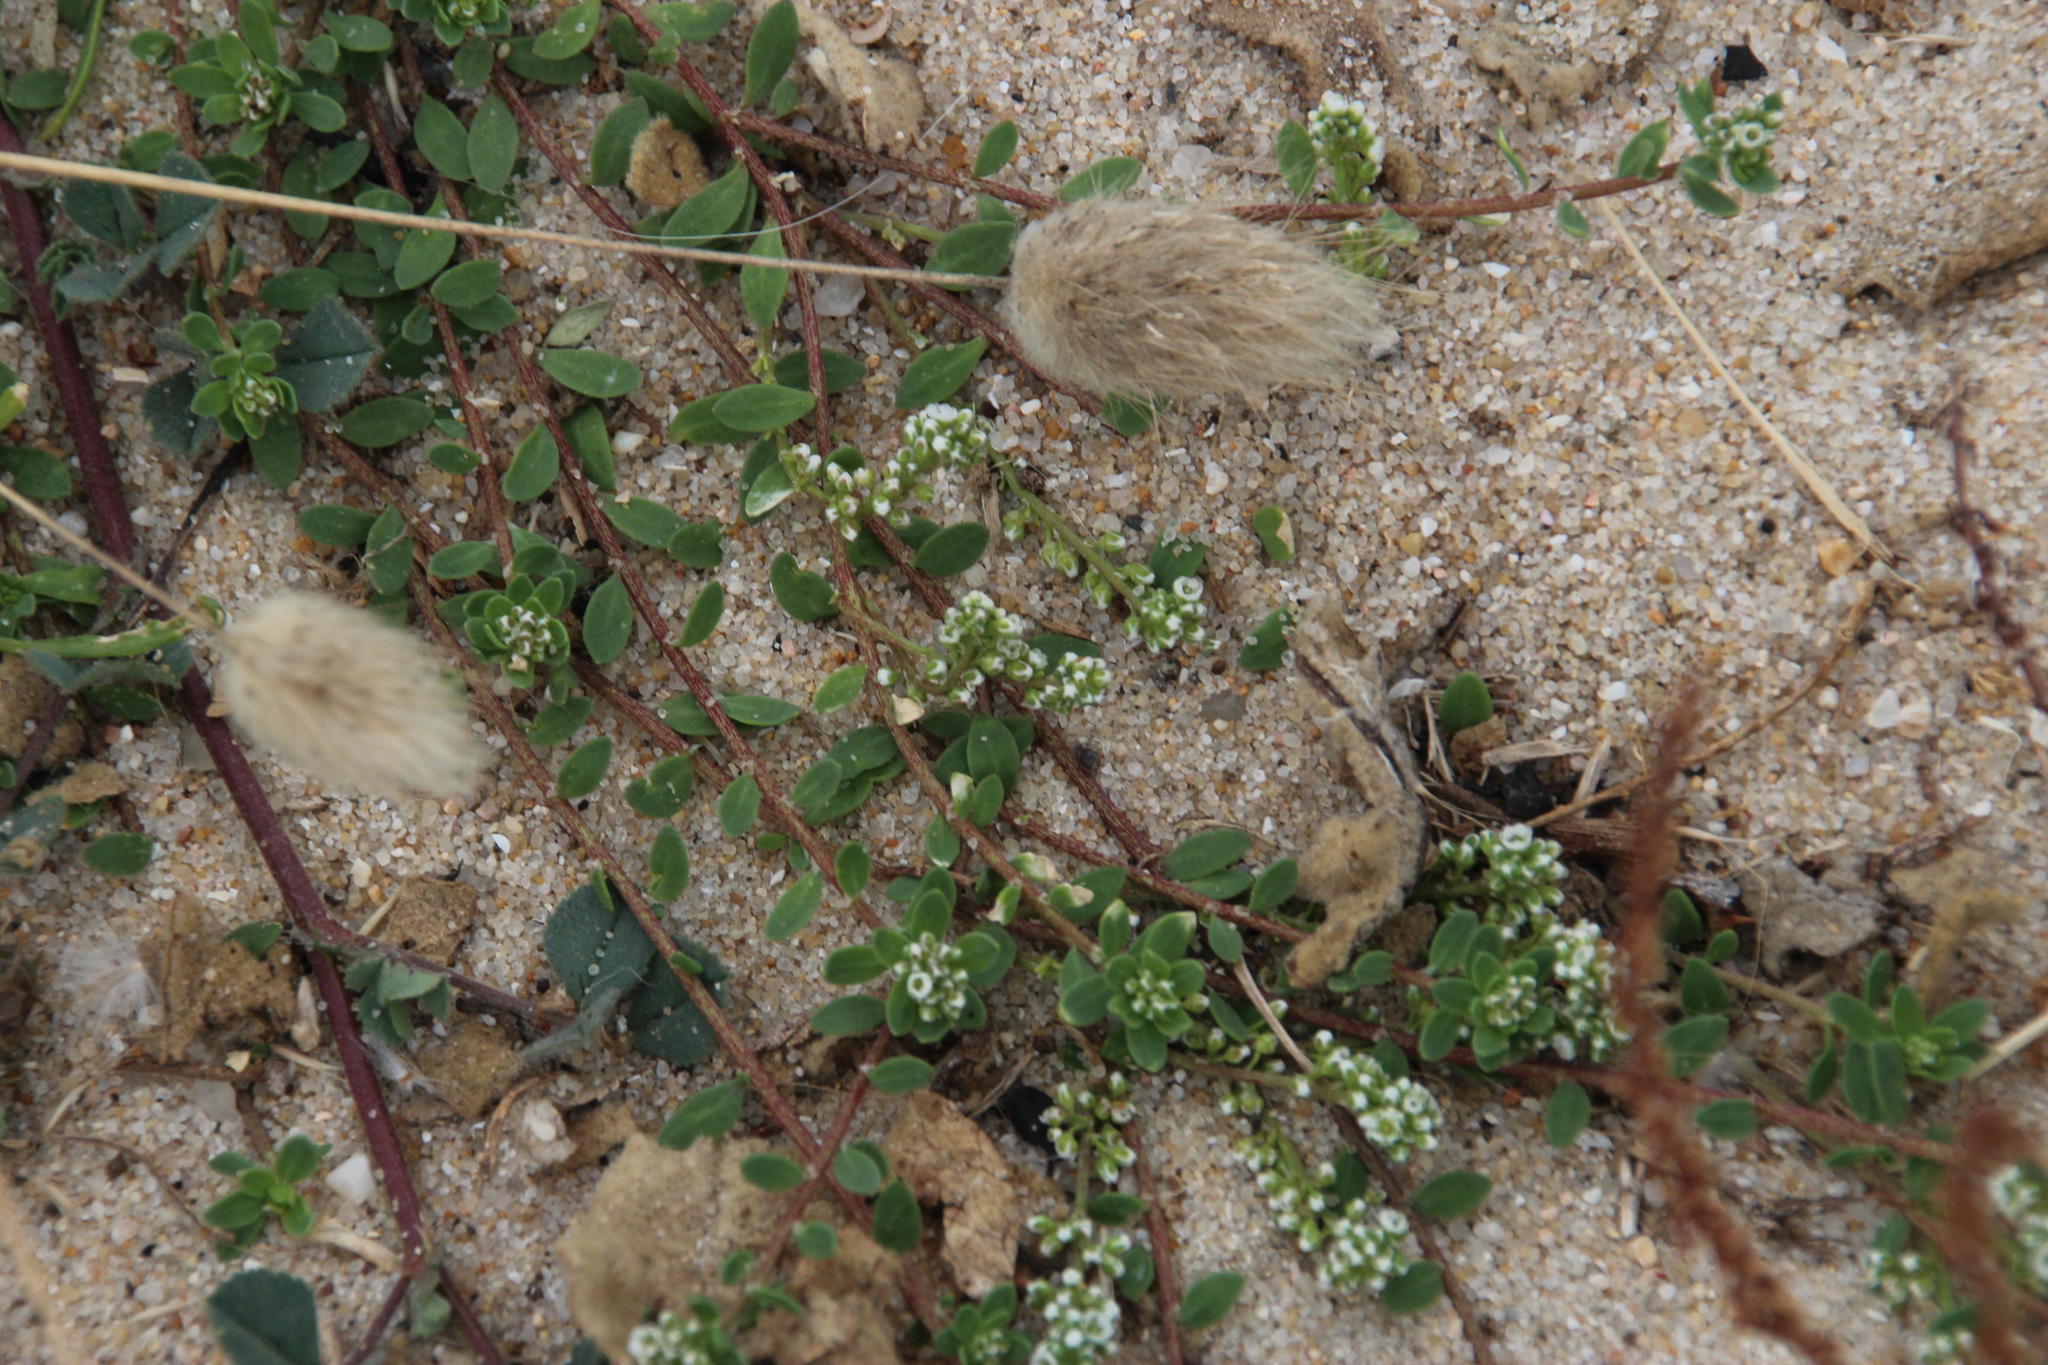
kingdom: Plantae
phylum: Tracheophyta
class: Magnoliopsida
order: Caryophyllales
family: Caryophyllaceae
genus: Corrigiola
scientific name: Corrigiola litoralis
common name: Strapwort
